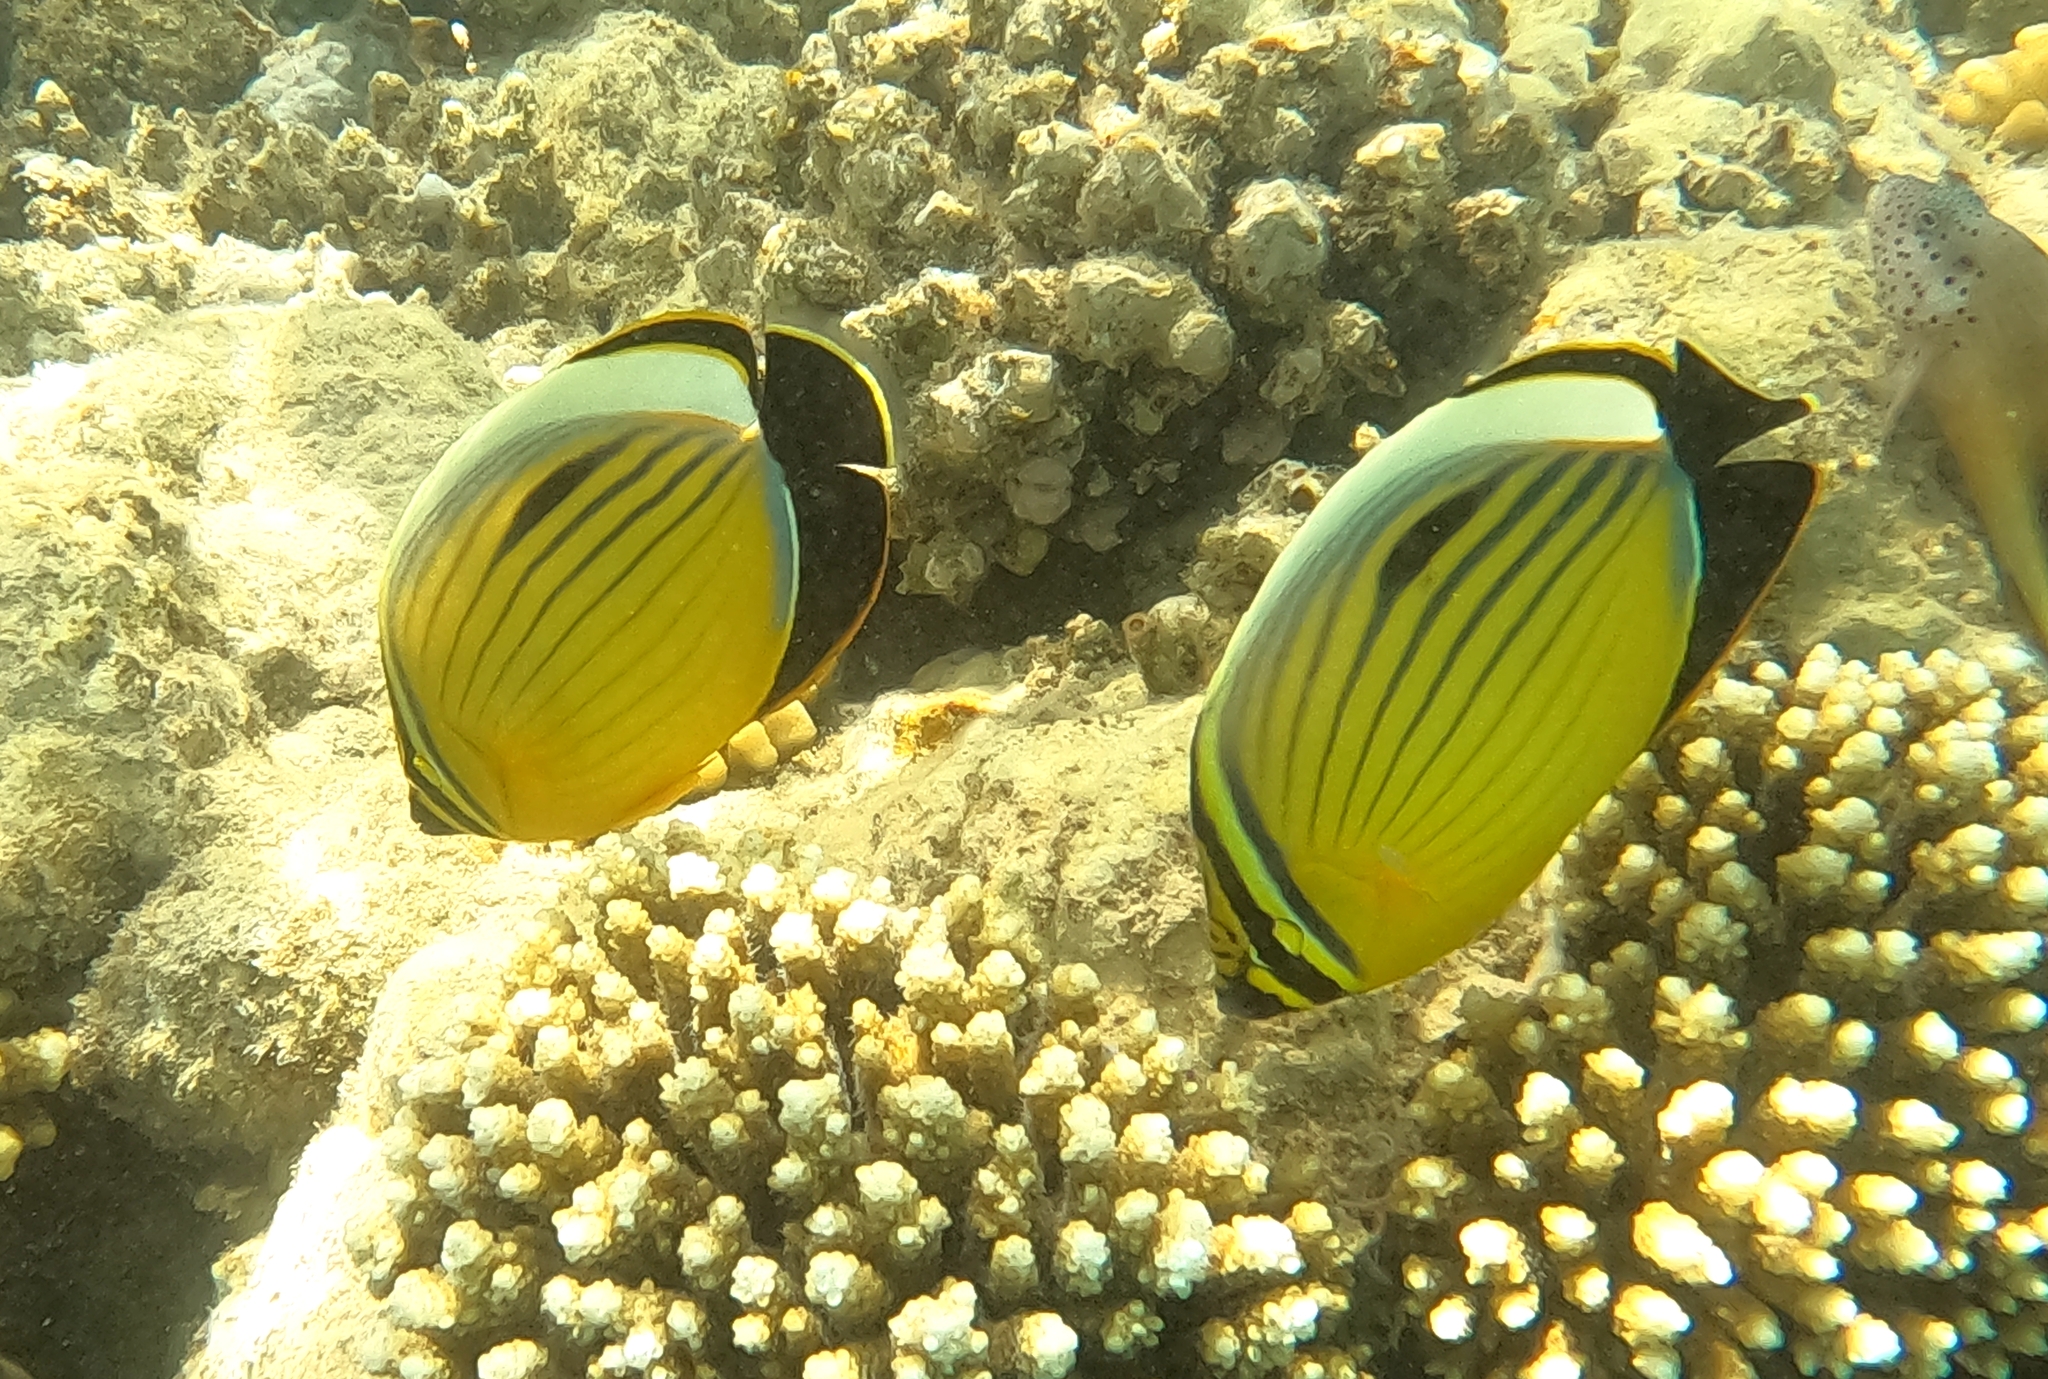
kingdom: Animalia
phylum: Chordata
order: Perciformes
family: Chaetodontidae
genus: Chaetodon
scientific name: Chaetodon austriacus
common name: Exquisite butterflyfish
